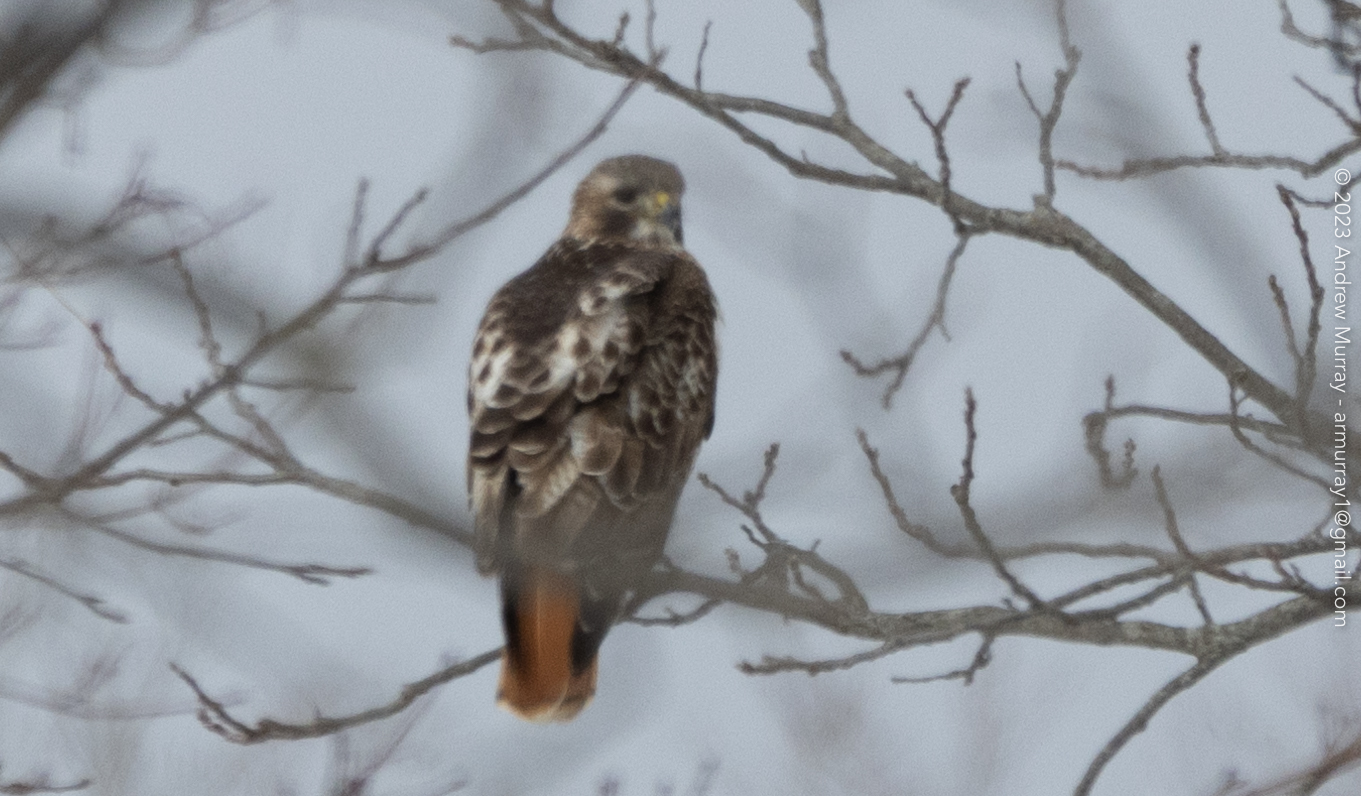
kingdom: Animalia
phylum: Chordata
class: Aves
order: Accipitriformes
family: Accipitridae
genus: Buteo
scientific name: Buteo jamaicensis
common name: Red-tailed hawk
